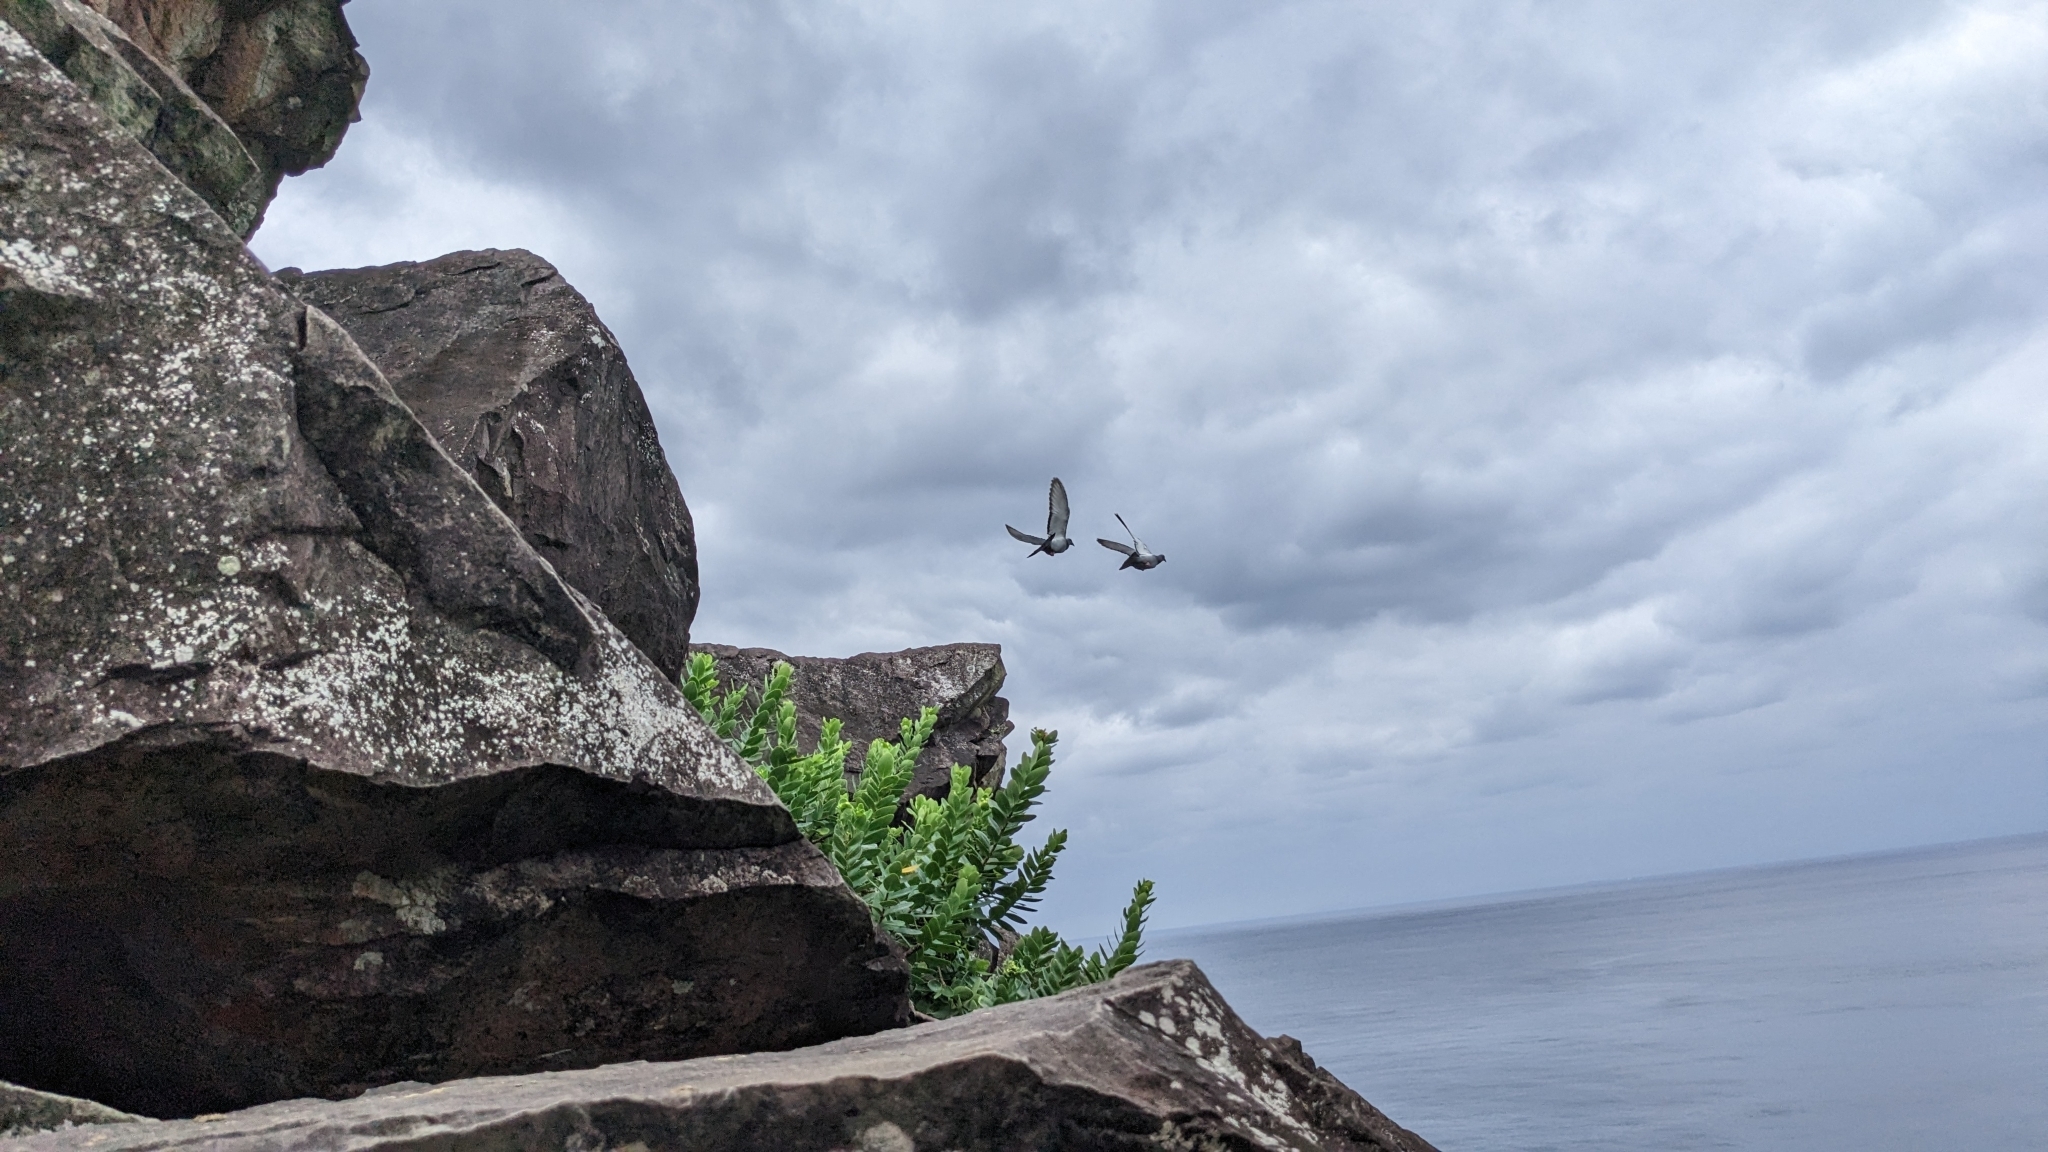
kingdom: Plantae
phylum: Tracheophyta
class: Magnoliopsida
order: Malvales
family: Thymelaeaceae
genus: Wikstroemia
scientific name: Wikstroemia indica
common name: Tiebush
